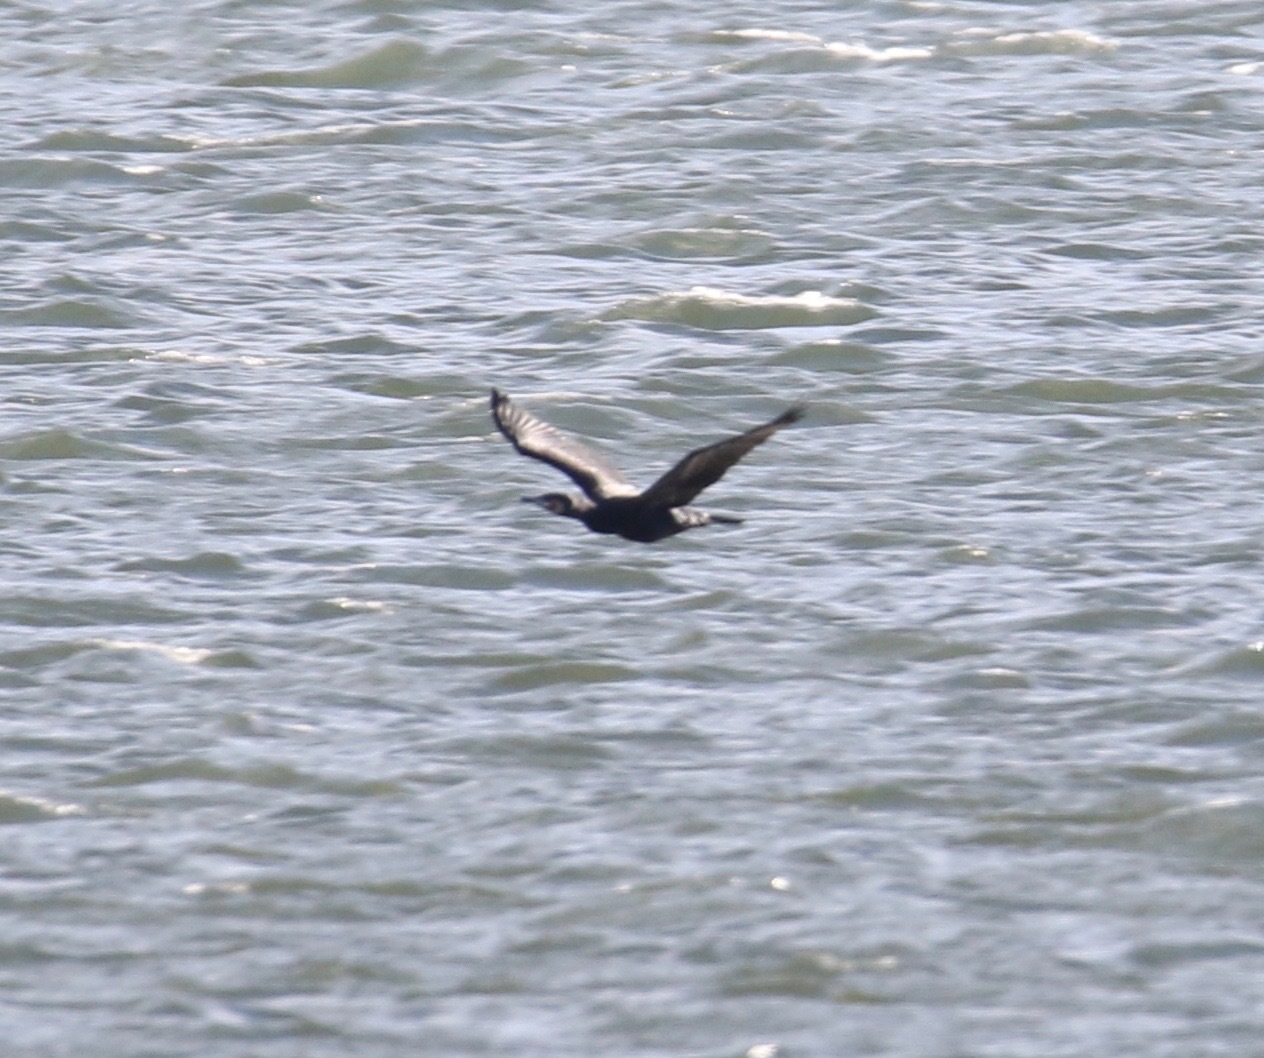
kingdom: Animalia
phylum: Chordata
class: Aves
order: Suliformes
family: Phalacrocoracidae
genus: Phalacrocorax
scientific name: Phalacrocorax carbo
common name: Great cormorant
